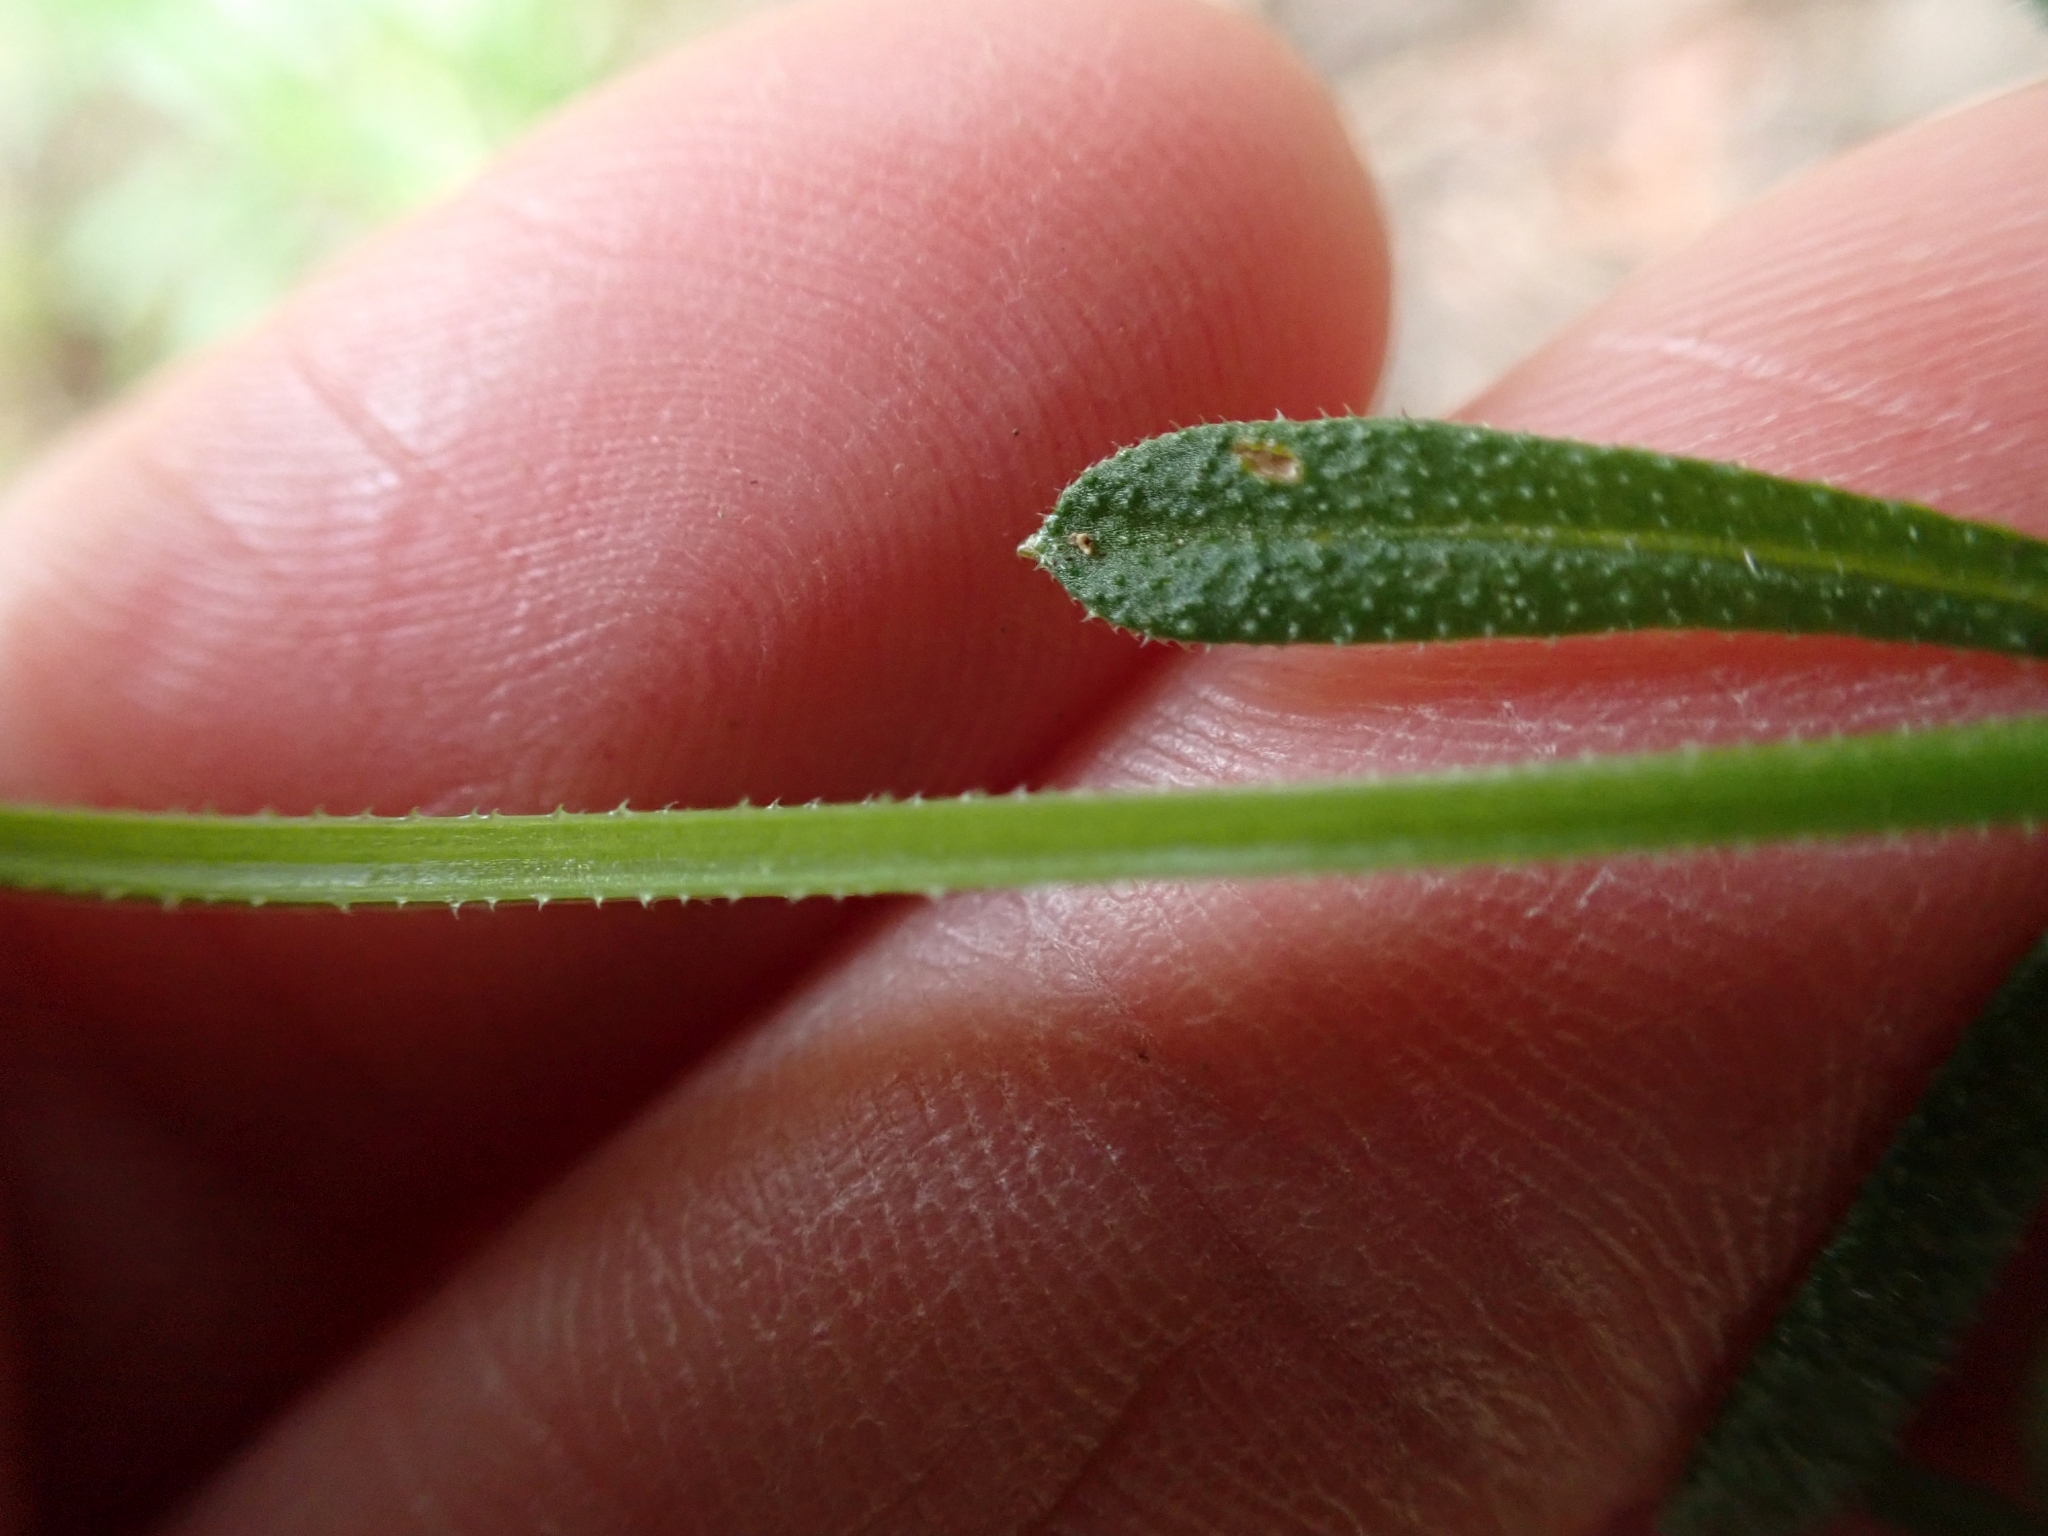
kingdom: Plantae
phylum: Tracheophyta
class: Magnoliopsida
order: Gentianales
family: Rubiaceae
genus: Galium
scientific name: Galium aparine
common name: Cleavers
